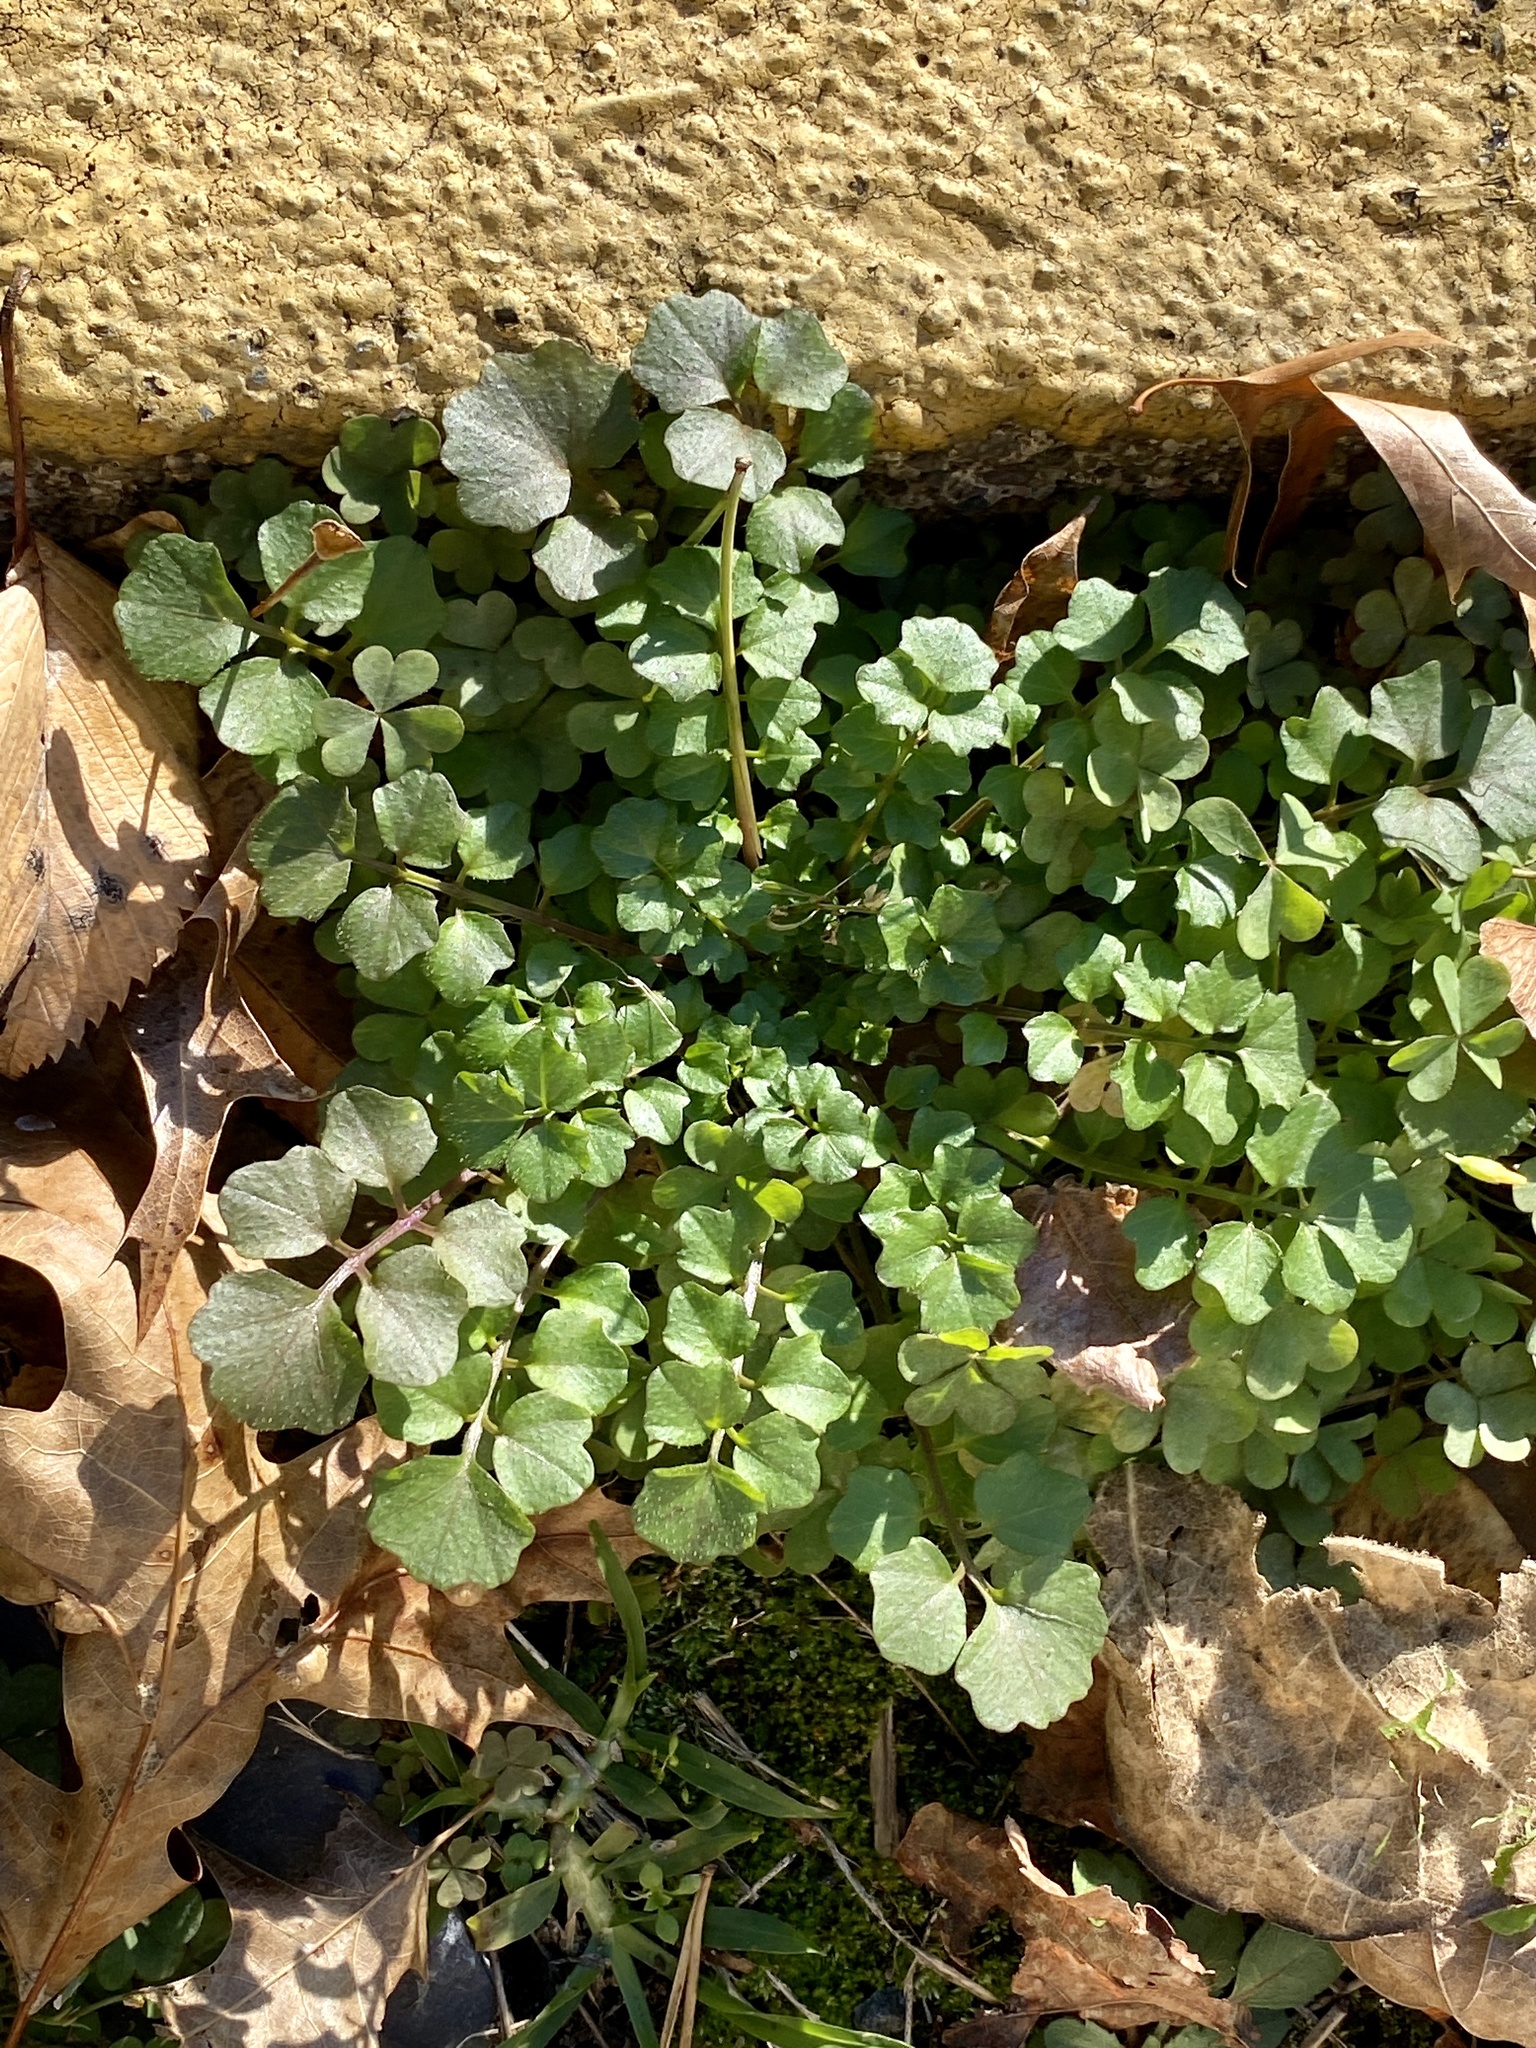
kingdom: Plantae
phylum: Tracheophyta
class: Magnoliopsida
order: Brassicales
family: Brassicaceae
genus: Cardamine
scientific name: Cardamine hirsuta
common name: Hairy bittercress
